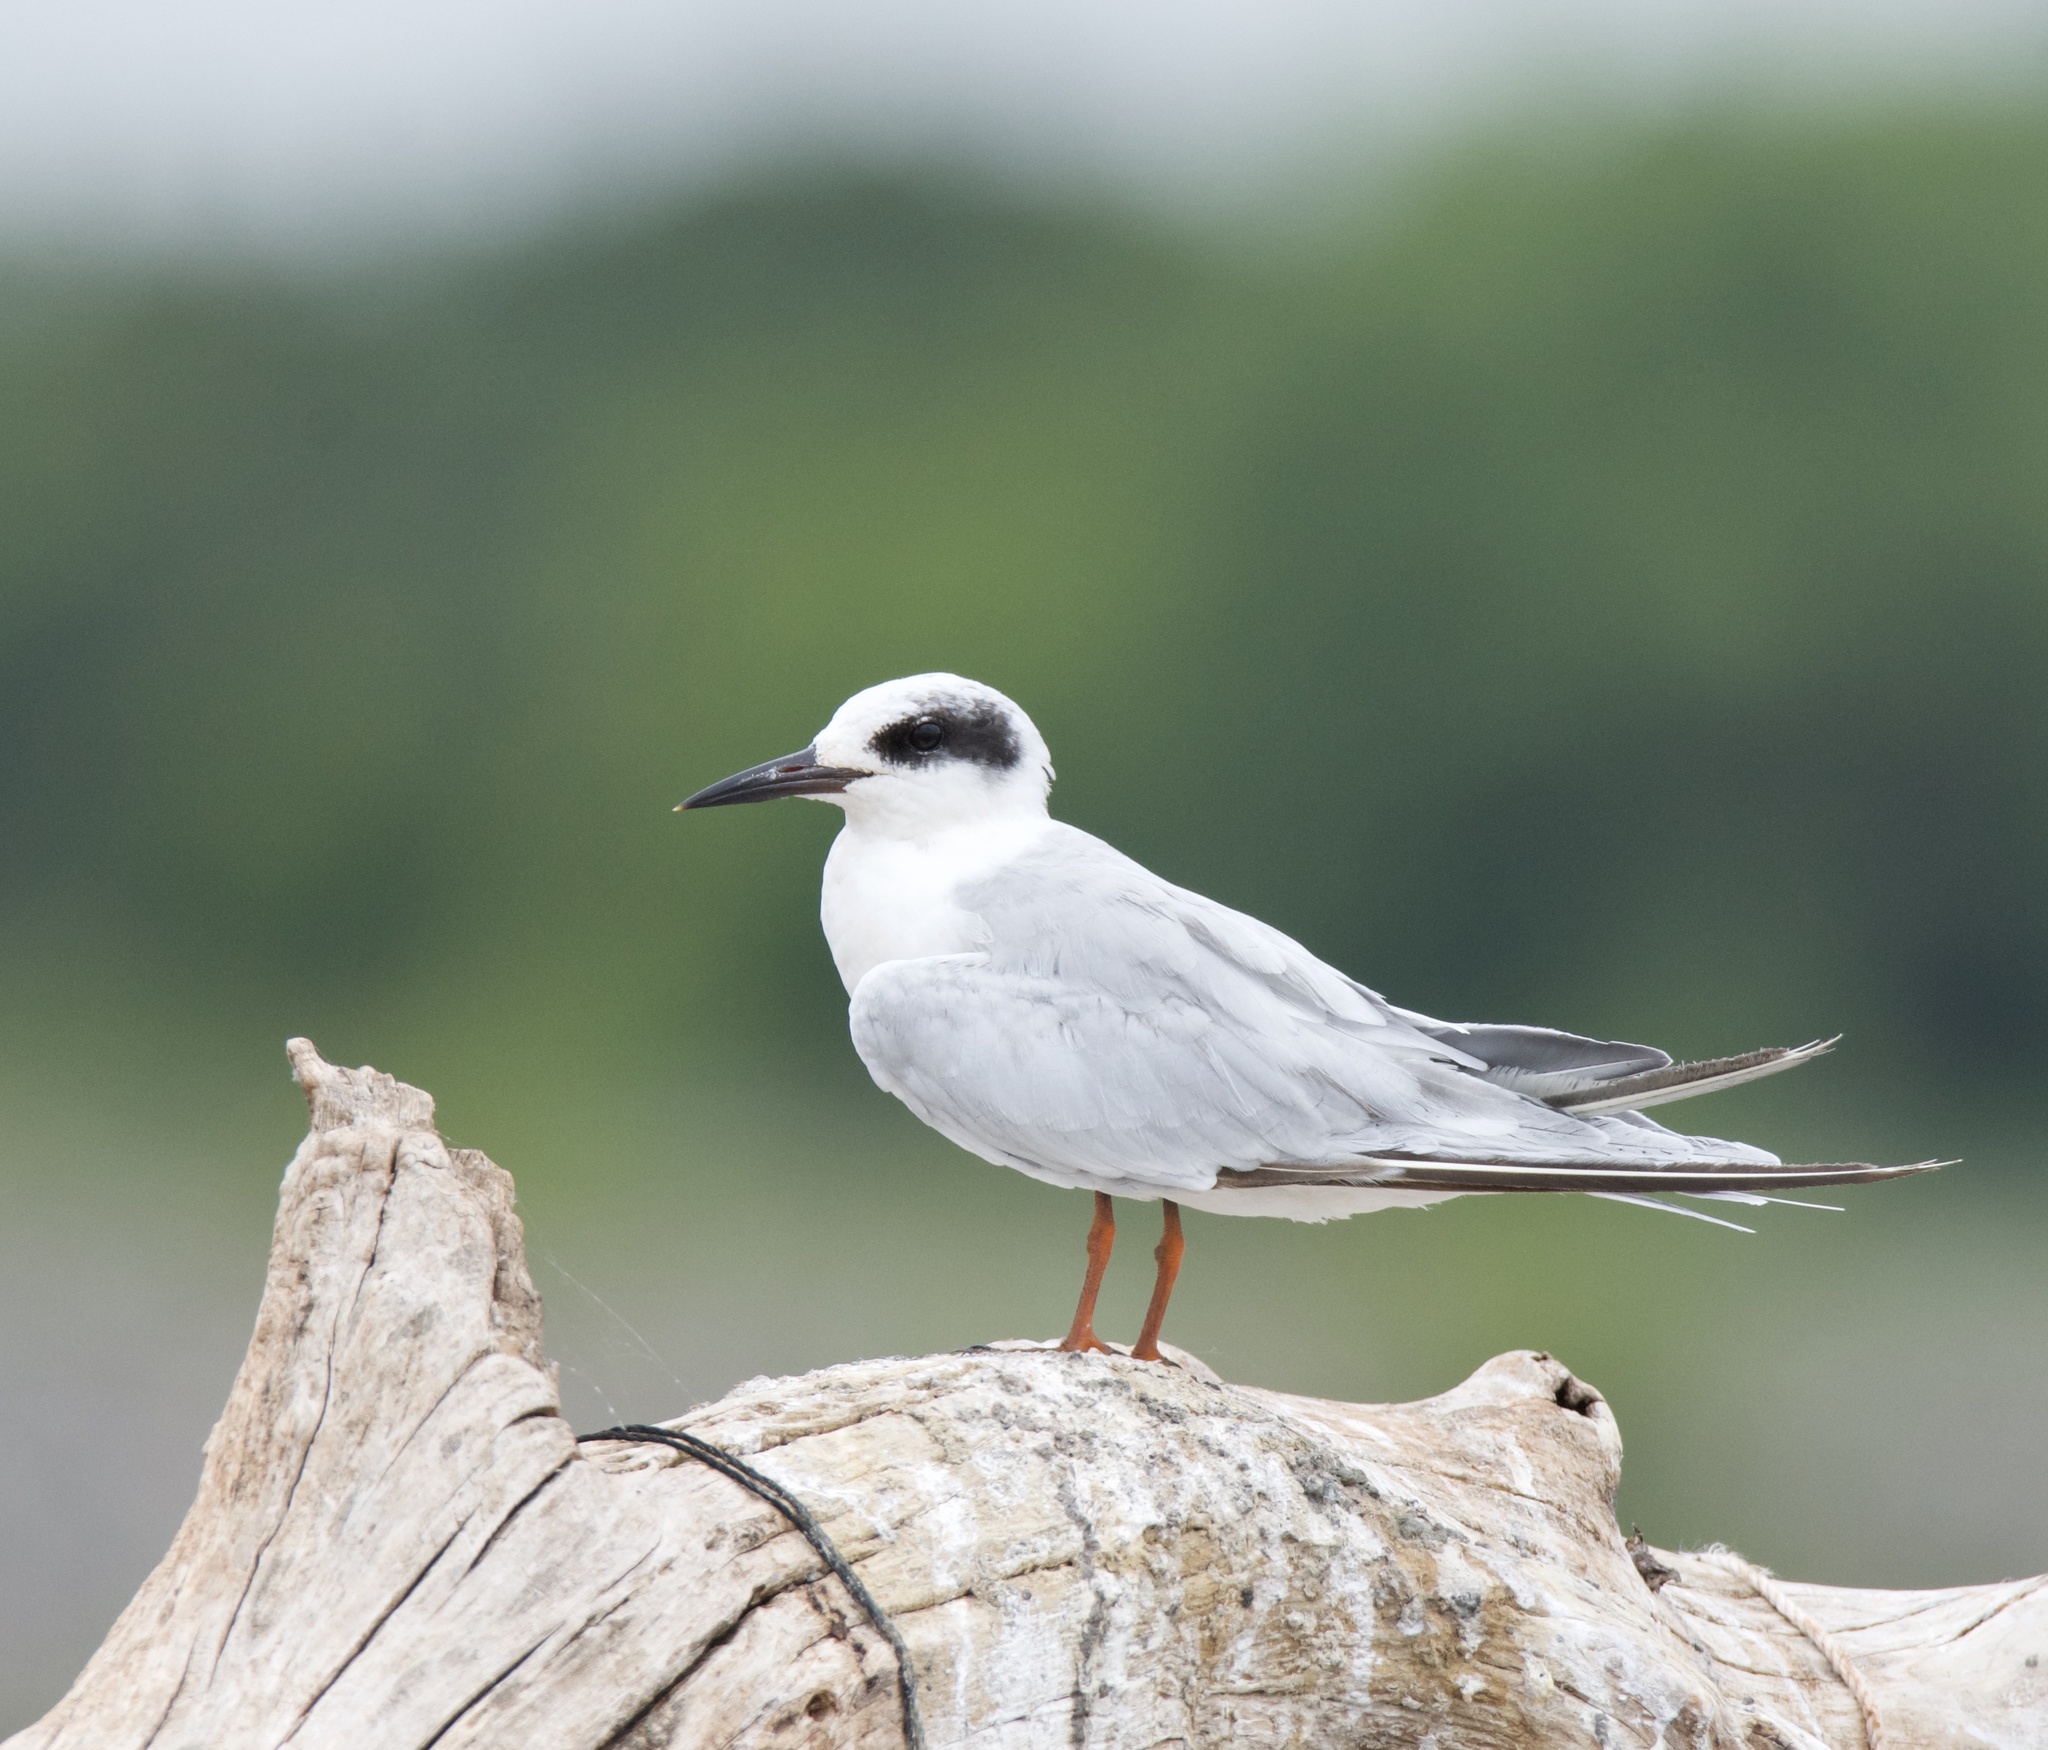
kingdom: Animalia
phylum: Chordata
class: Aves
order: Charadriiformes
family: Laridae
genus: Sterna
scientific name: Sterna forsteri
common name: Forster's tern
